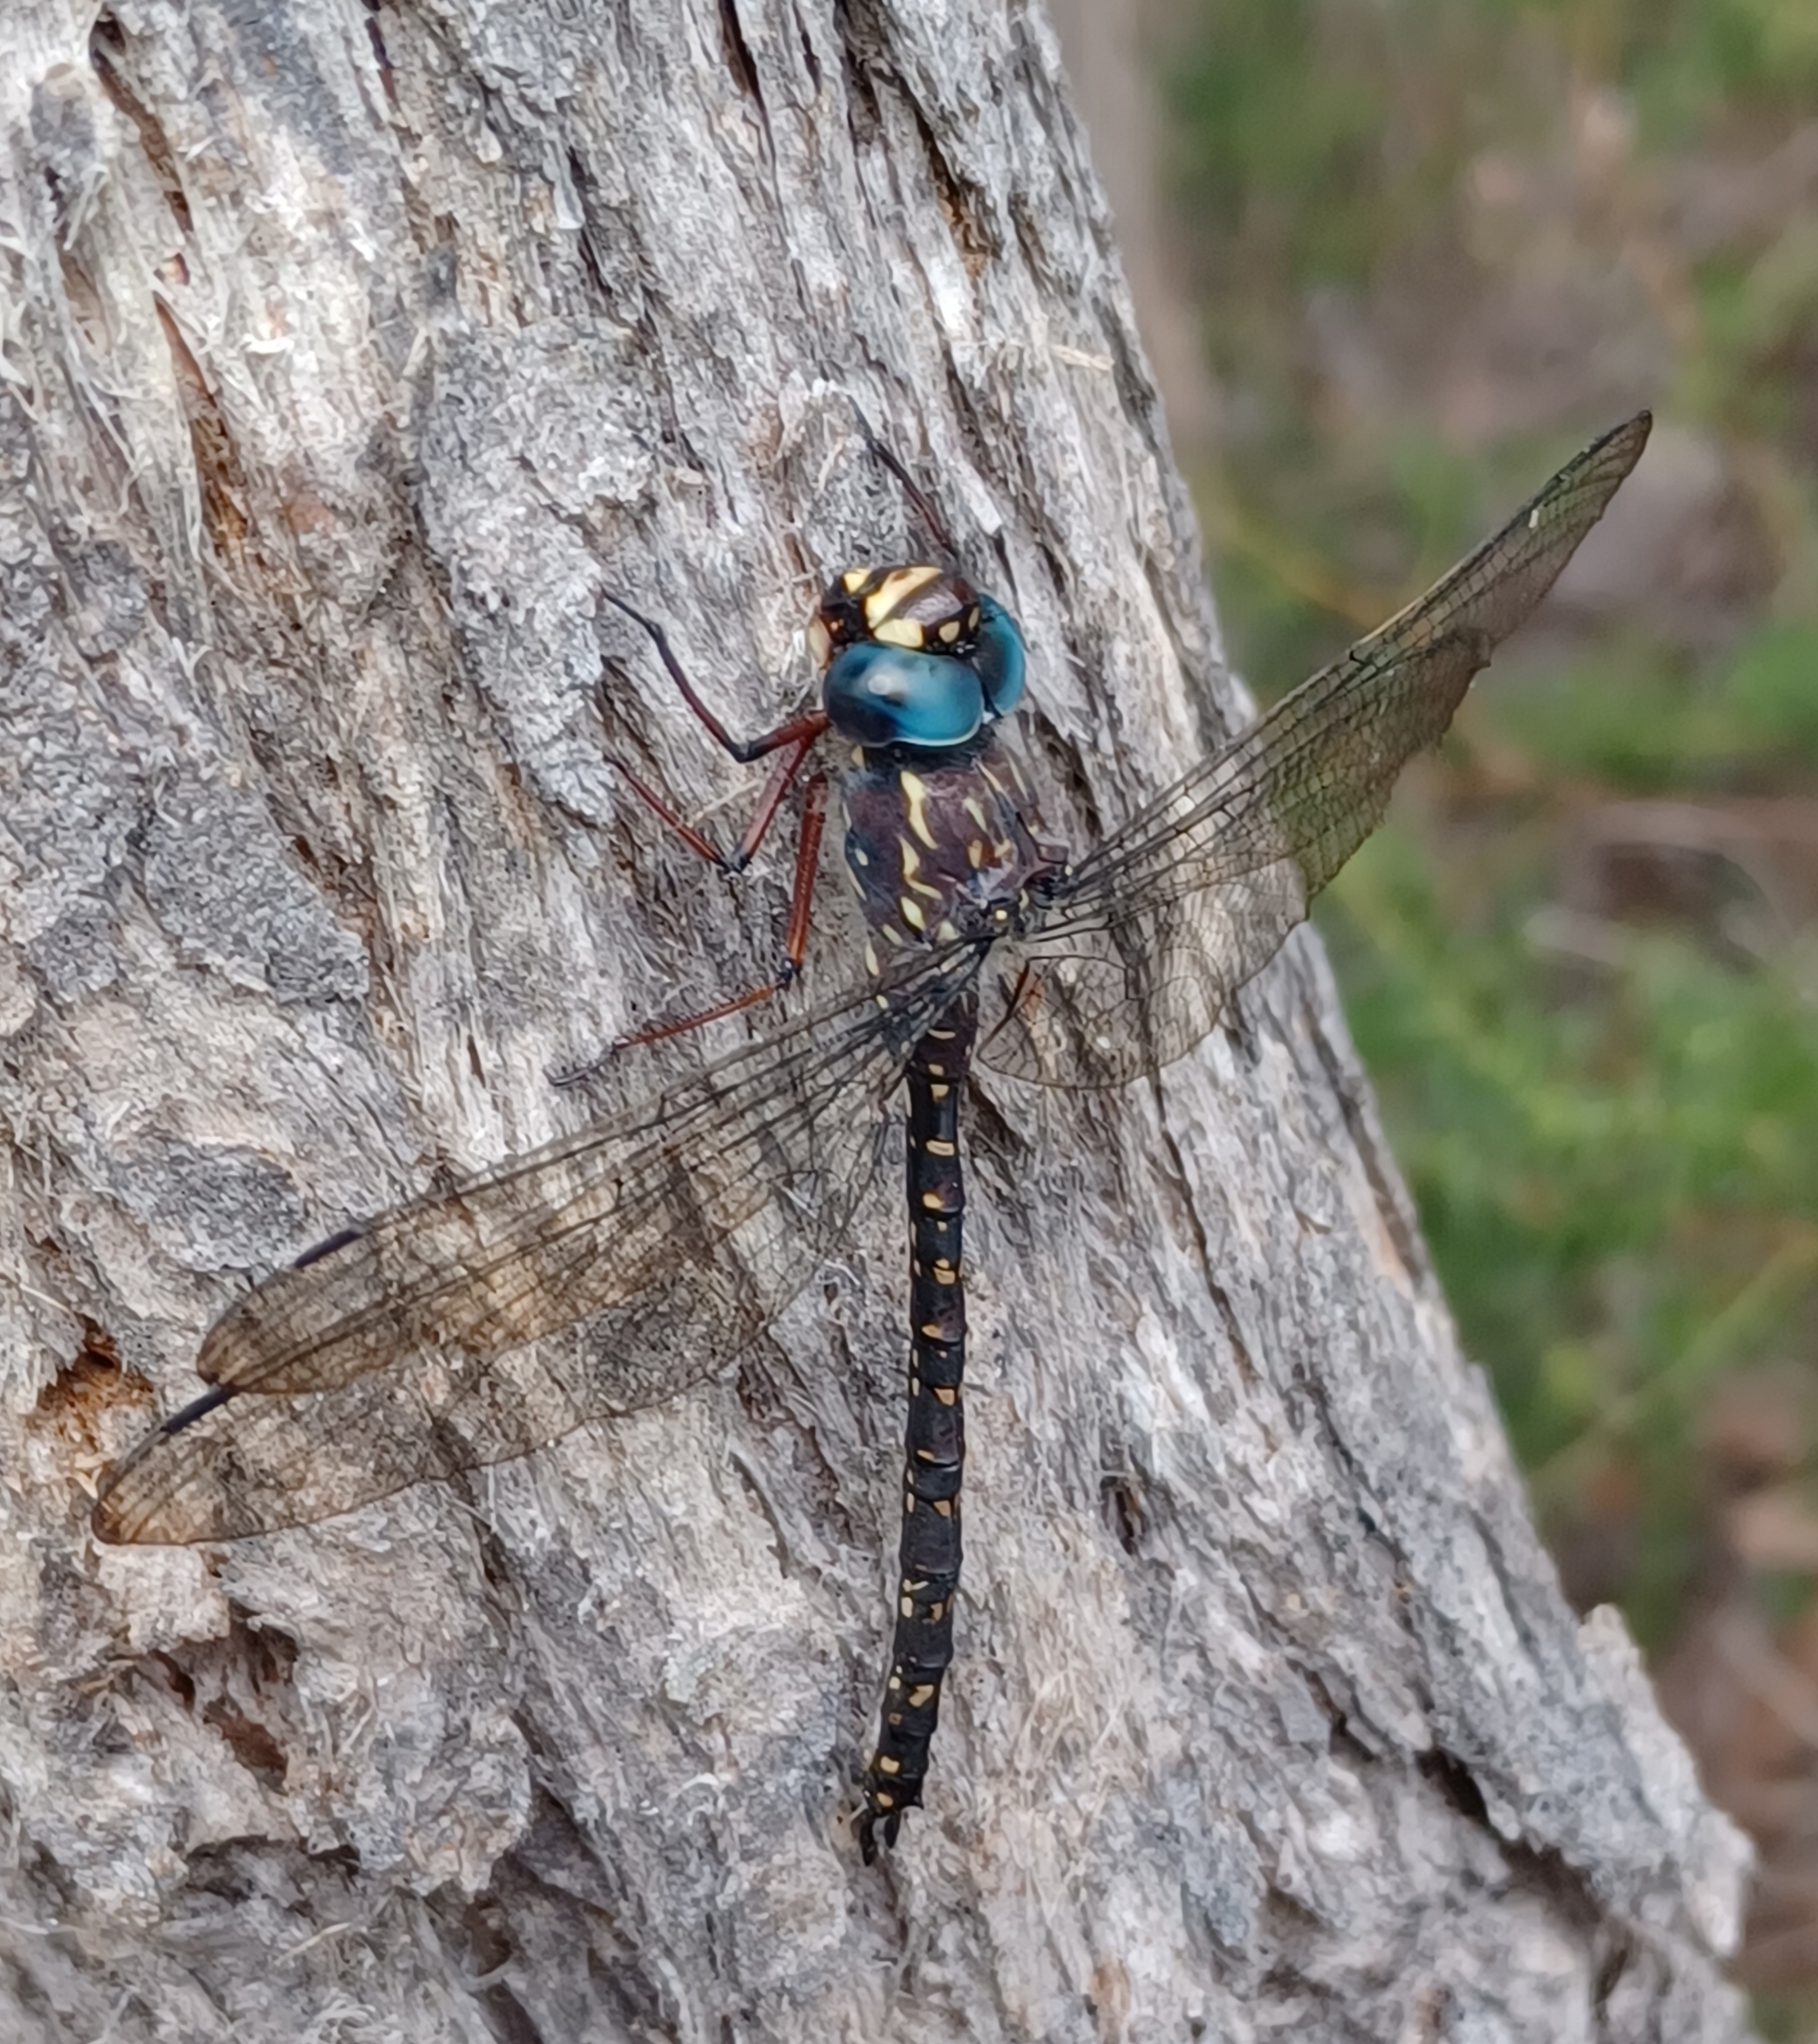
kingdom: Animalia
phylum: Arthropoda
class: Insecta
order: Odonata
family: Aeshnidae
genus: Austroaeschna
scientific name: Austroaeschna multipunctata
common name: Multi-spotted darner
